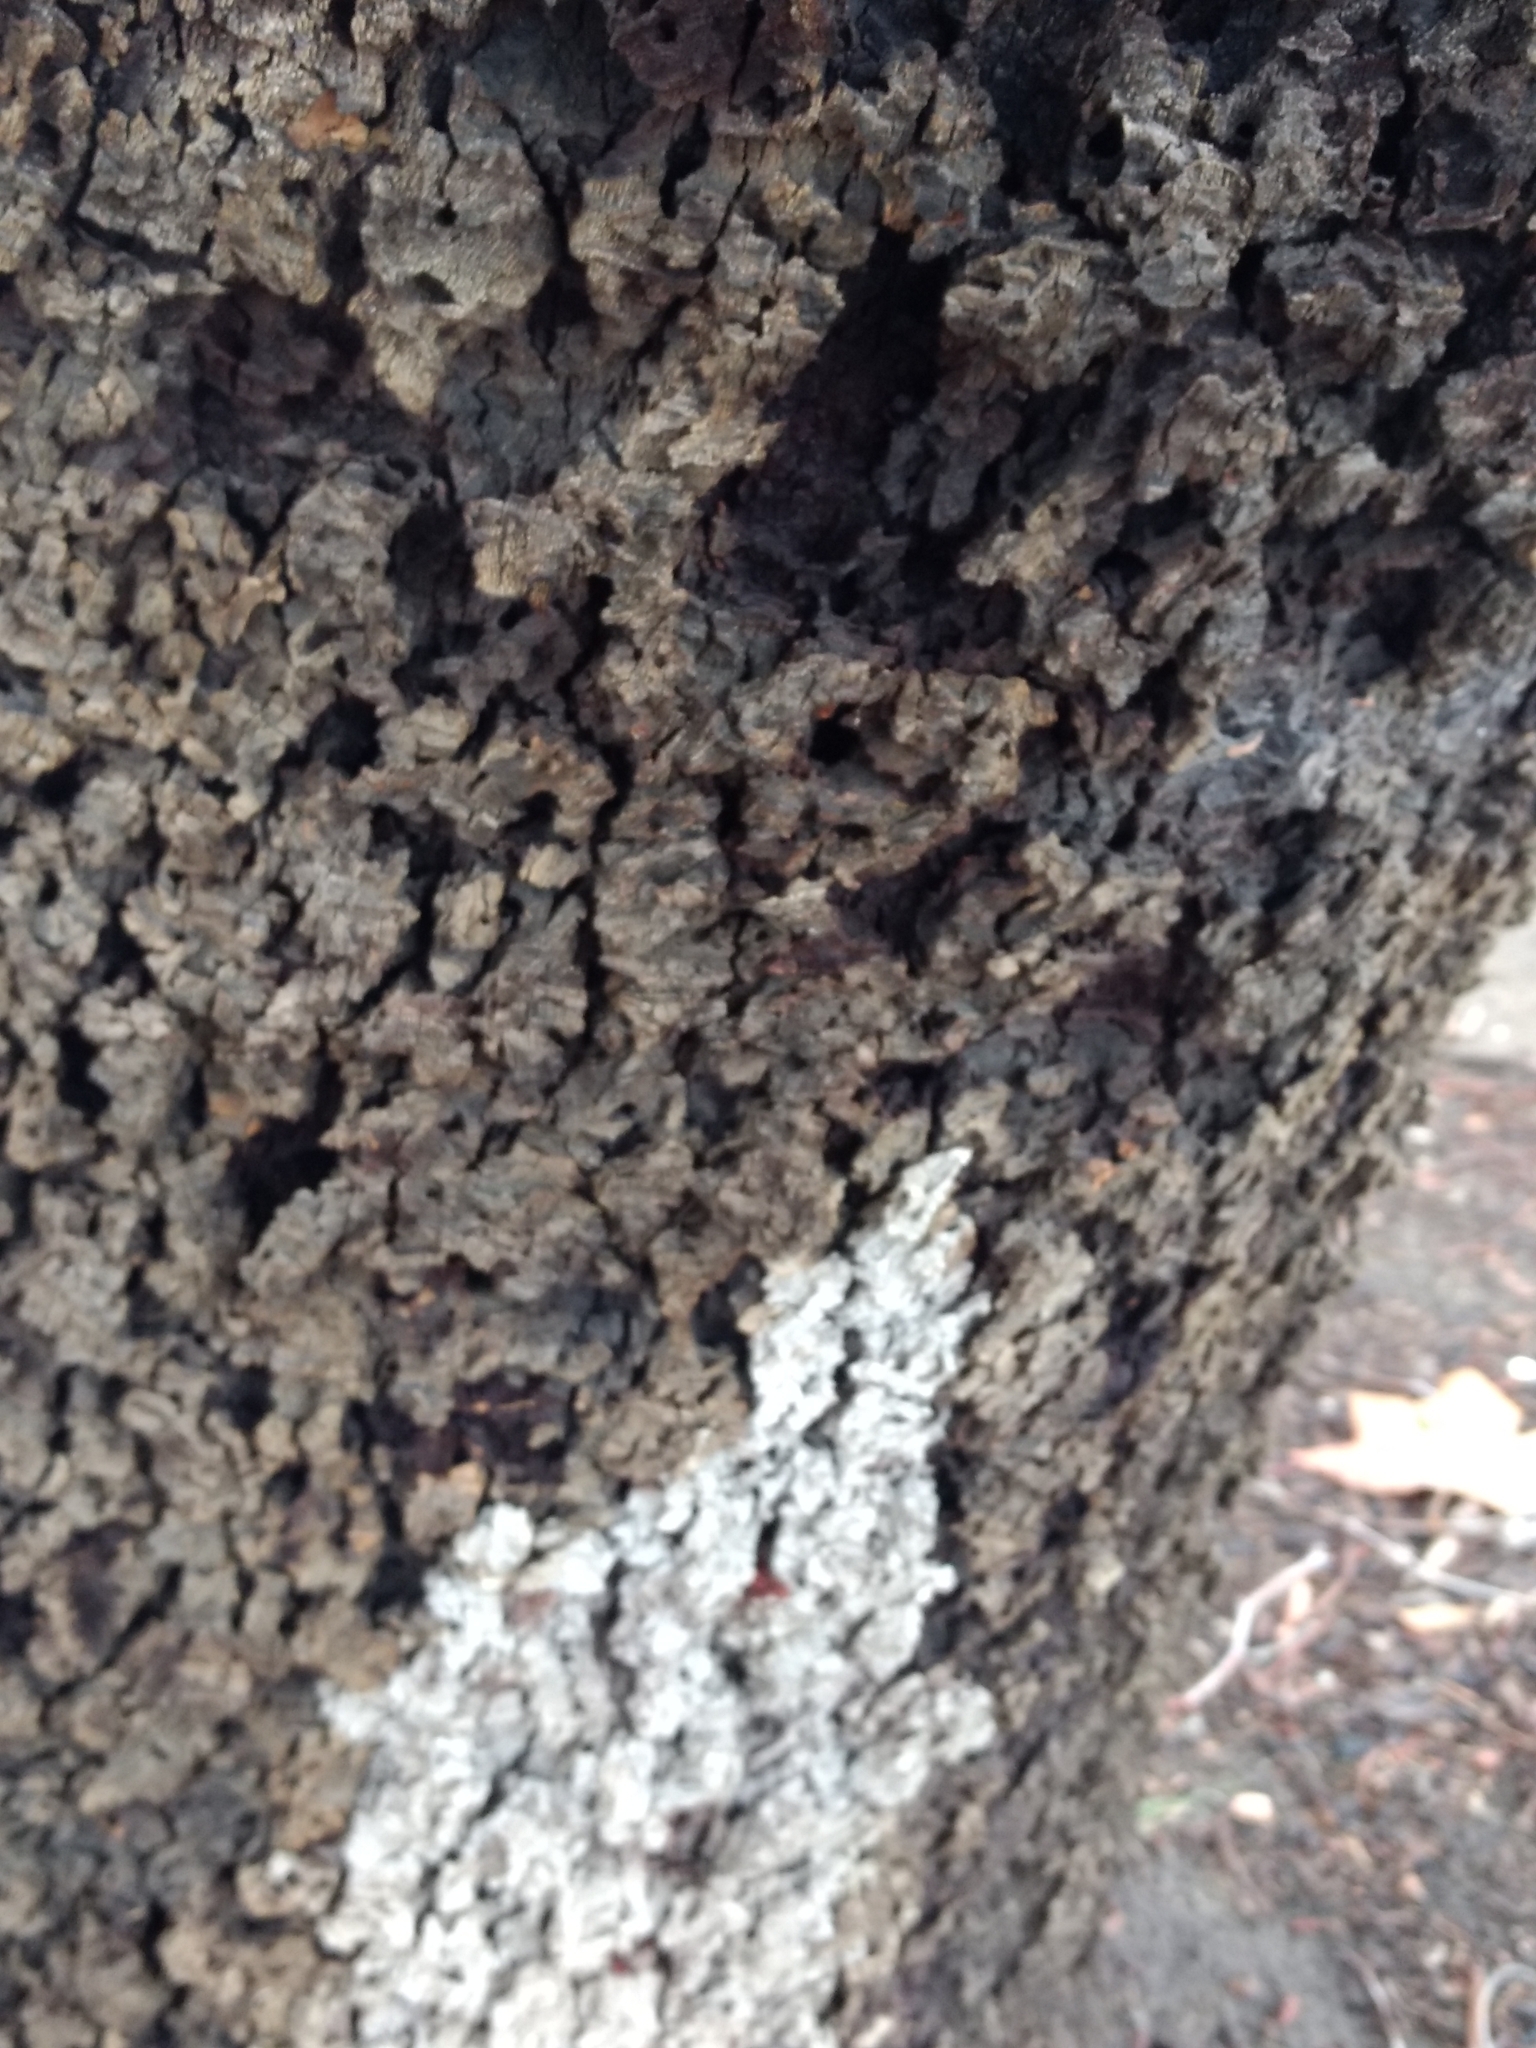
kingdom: Animalia
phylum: Arthropoda
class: Insecta
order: Lepidoptera
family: Sesiidae
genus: Synanthedon
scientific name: Synanthedon resplendens
